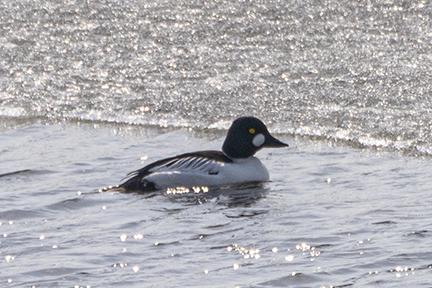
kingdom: Animalia
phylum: Chordata
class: Aves
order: Anseriformes
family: Anatidae
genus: Bucephala
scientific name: Bucephala clangula
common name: Common goldeneye
